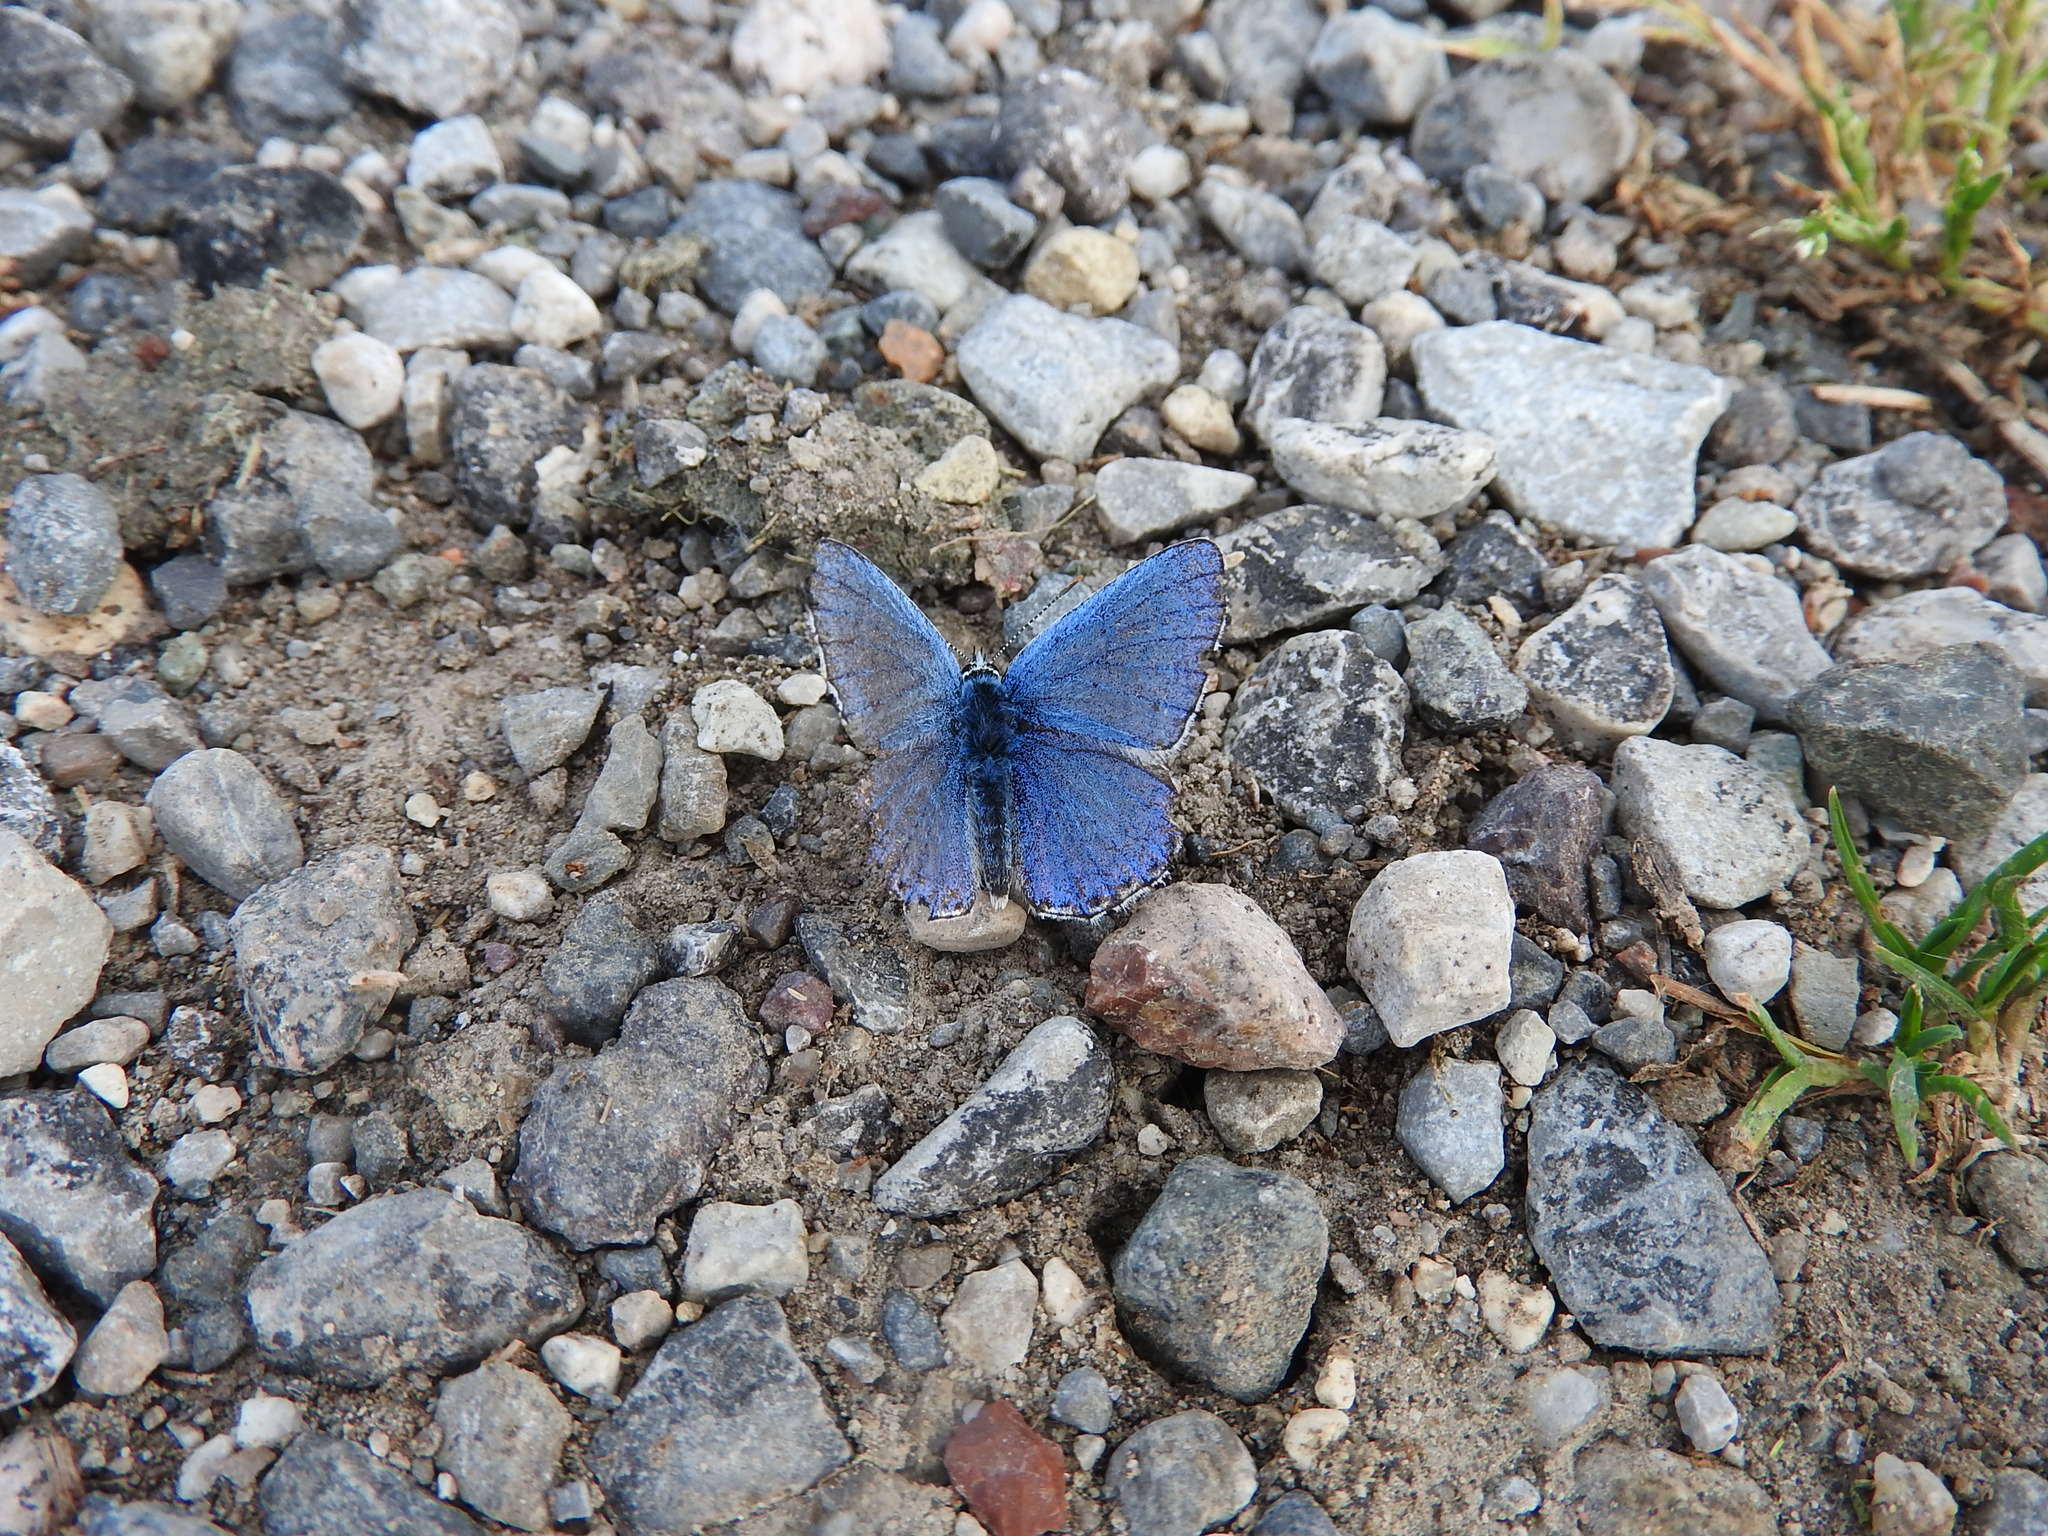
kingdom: Animalia
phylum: Arthropoda
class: Insecta
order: Lepidoptera
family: Lycaenidae
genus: Lysandra
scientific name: Lysandra bellargus
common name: Adonis blue
